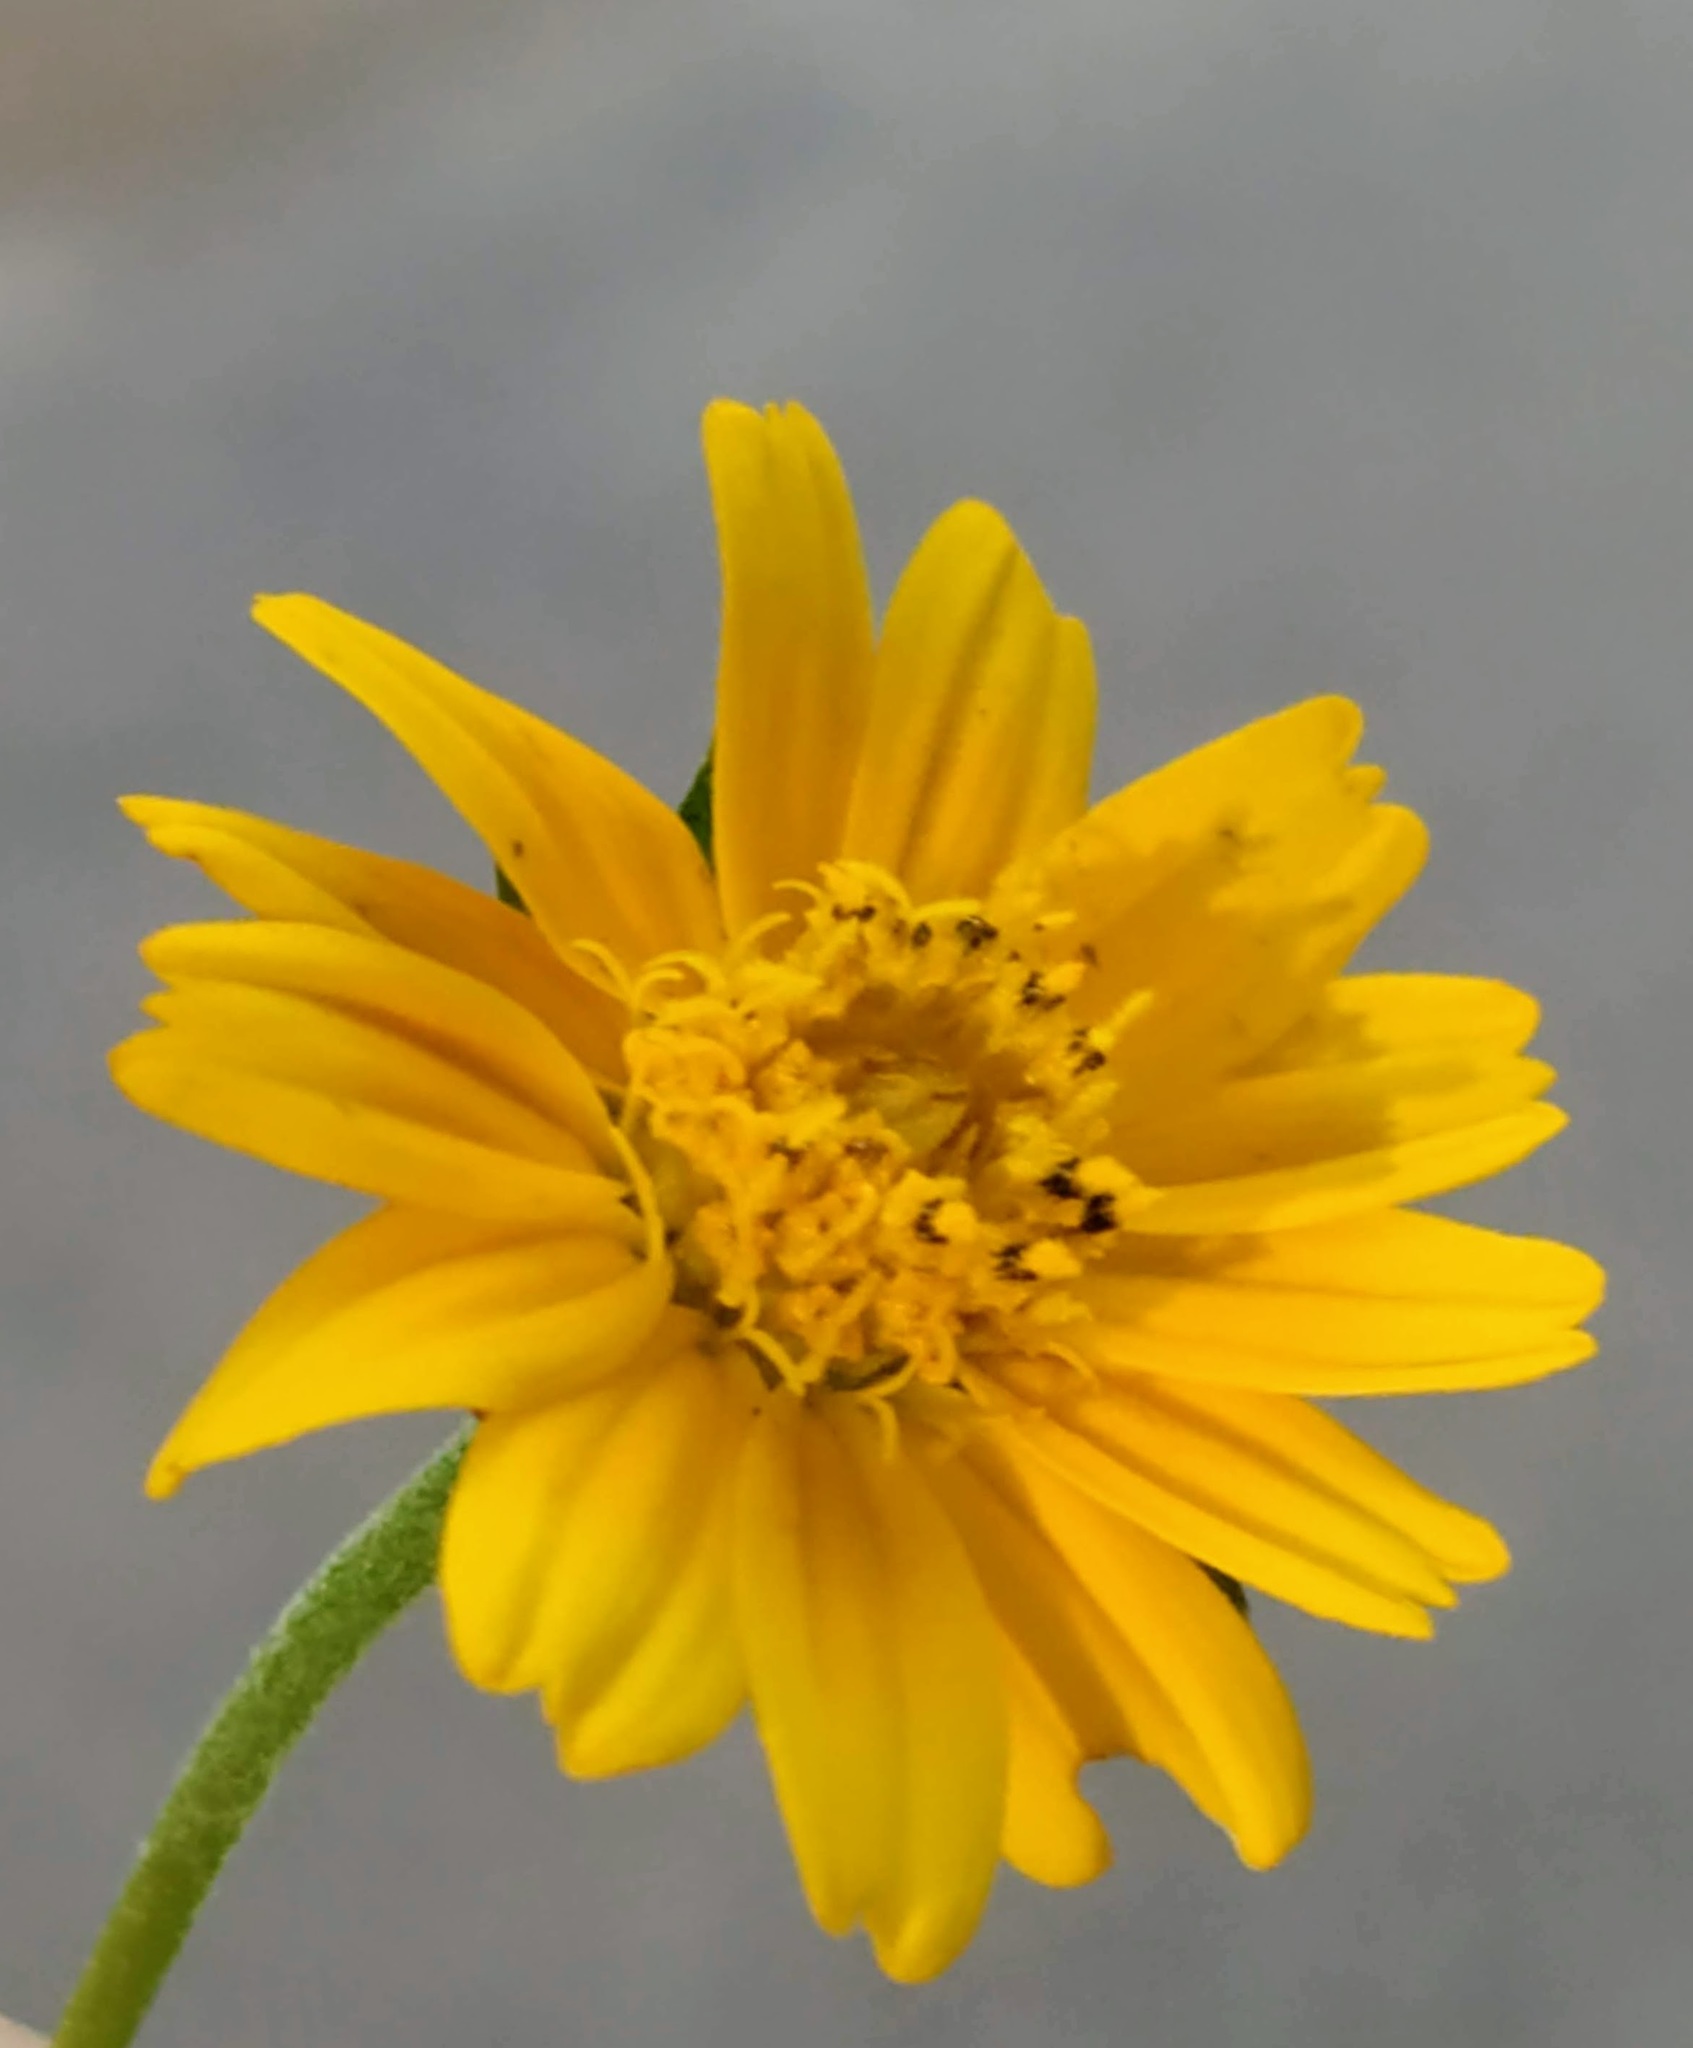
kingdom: Plantae
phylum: Tracheophyta
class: Magnoliopsida
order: Asterales
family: Asteraceae
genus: Sphagneticola
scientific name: Sphagneticola trilobata
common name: Bay biscayne creeping-oxeye
